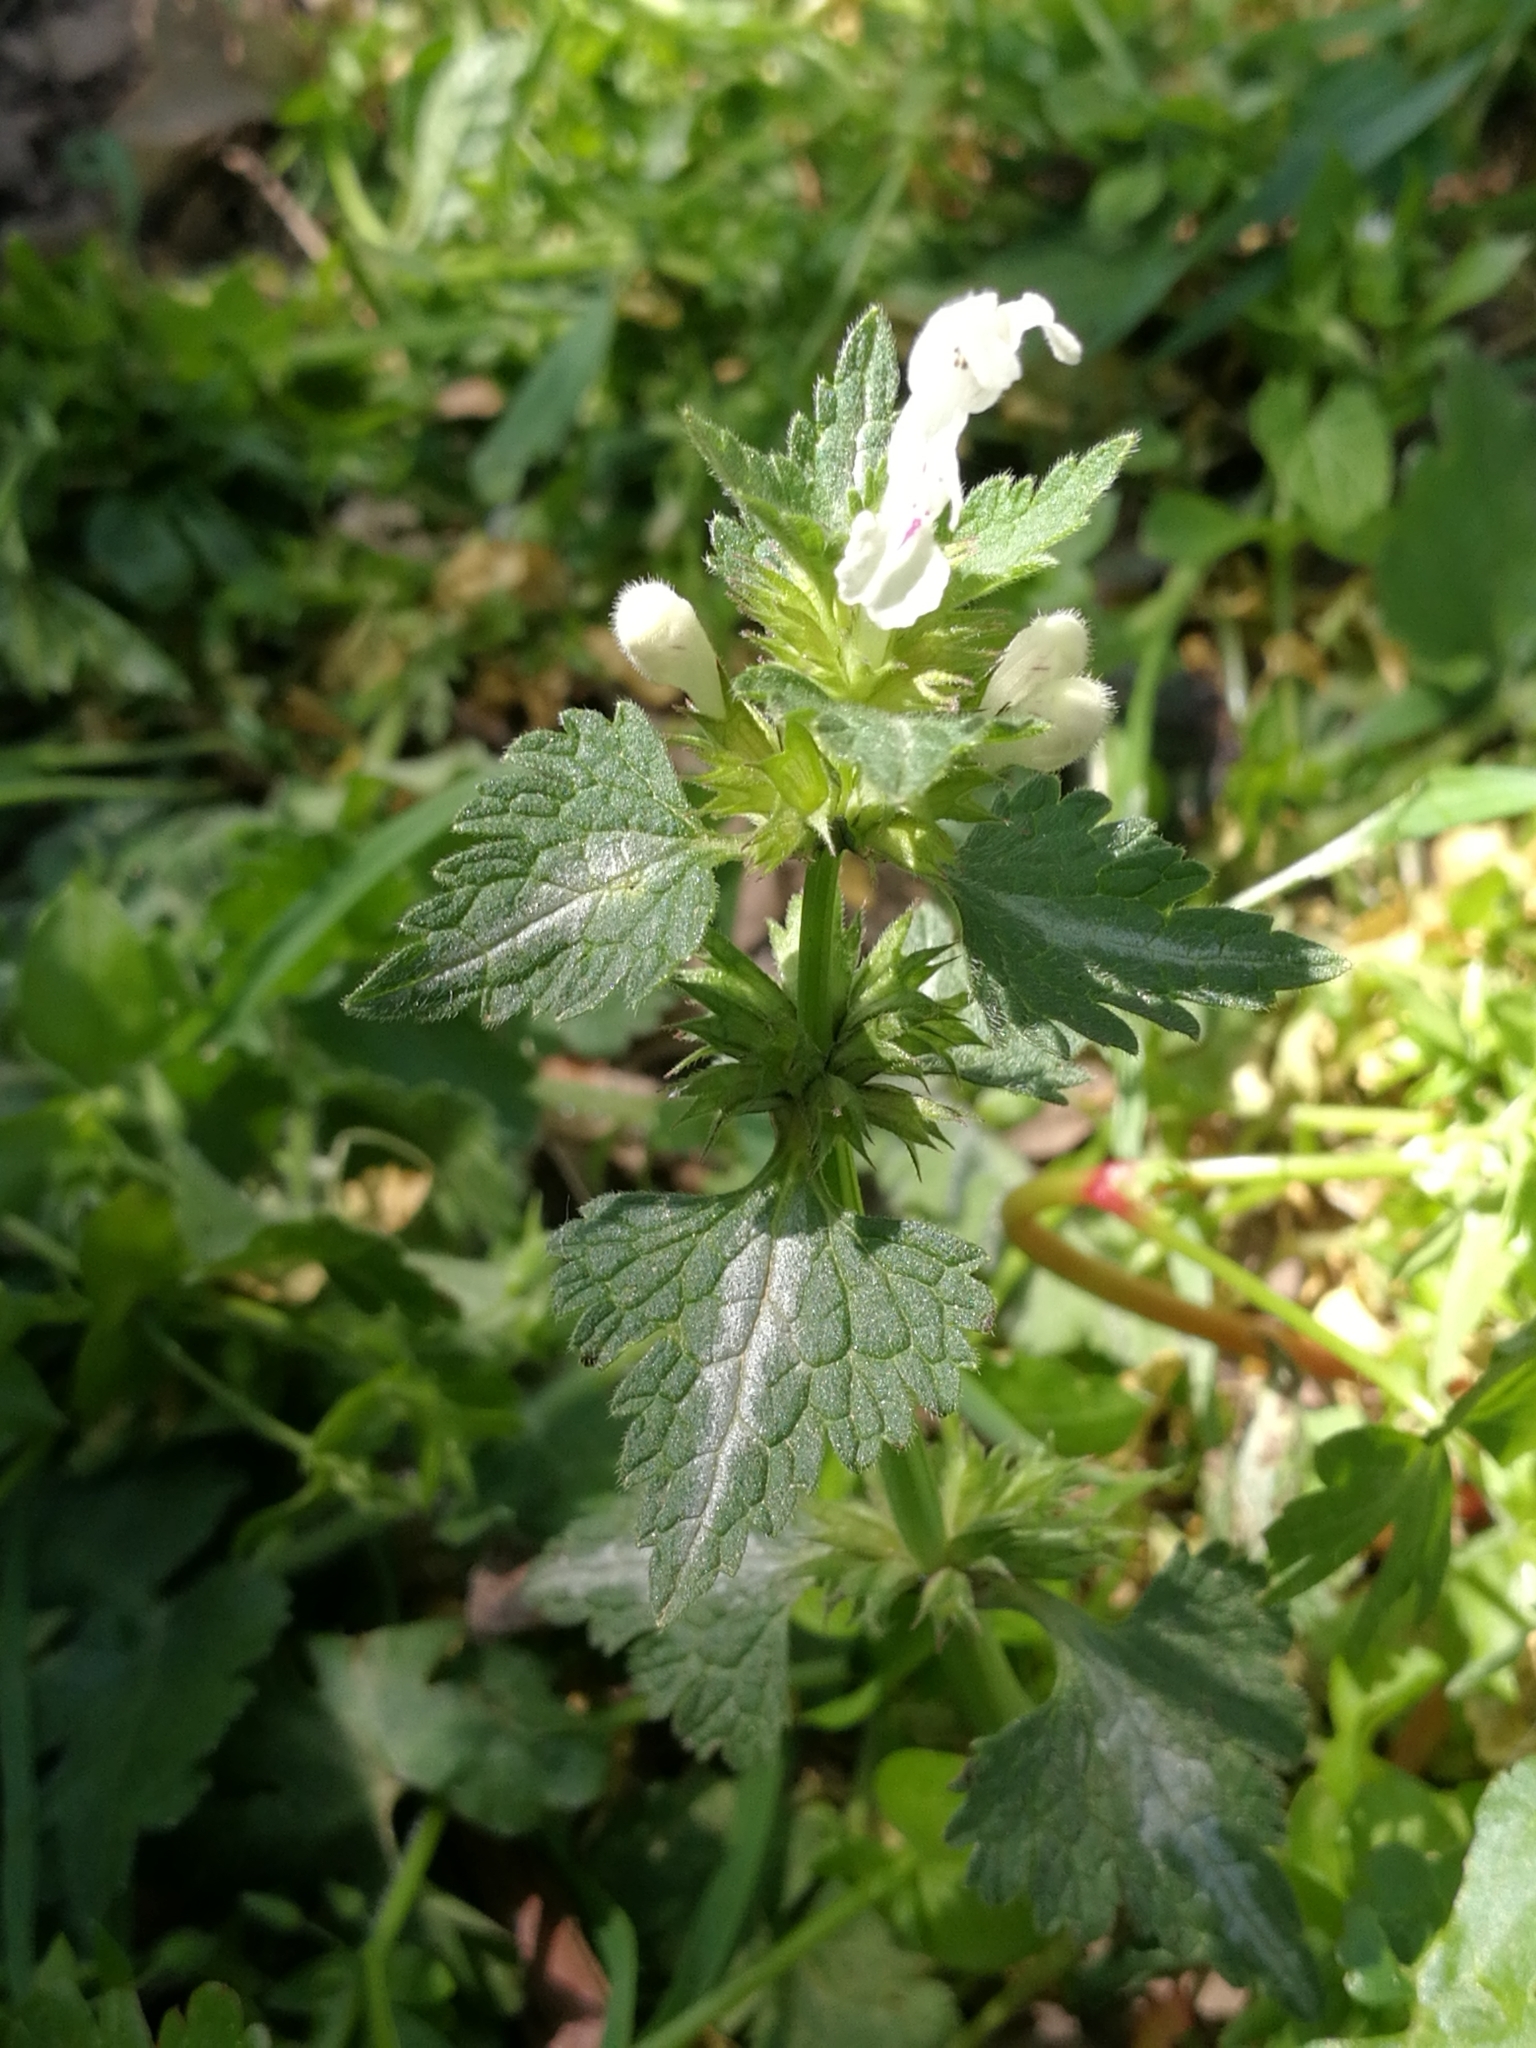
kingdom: Plantae
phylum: Tracheophyta
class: Magnoliopsida
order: Lamiales
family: Lamiaceae
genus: Lamium
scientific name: Lamium bifidum
